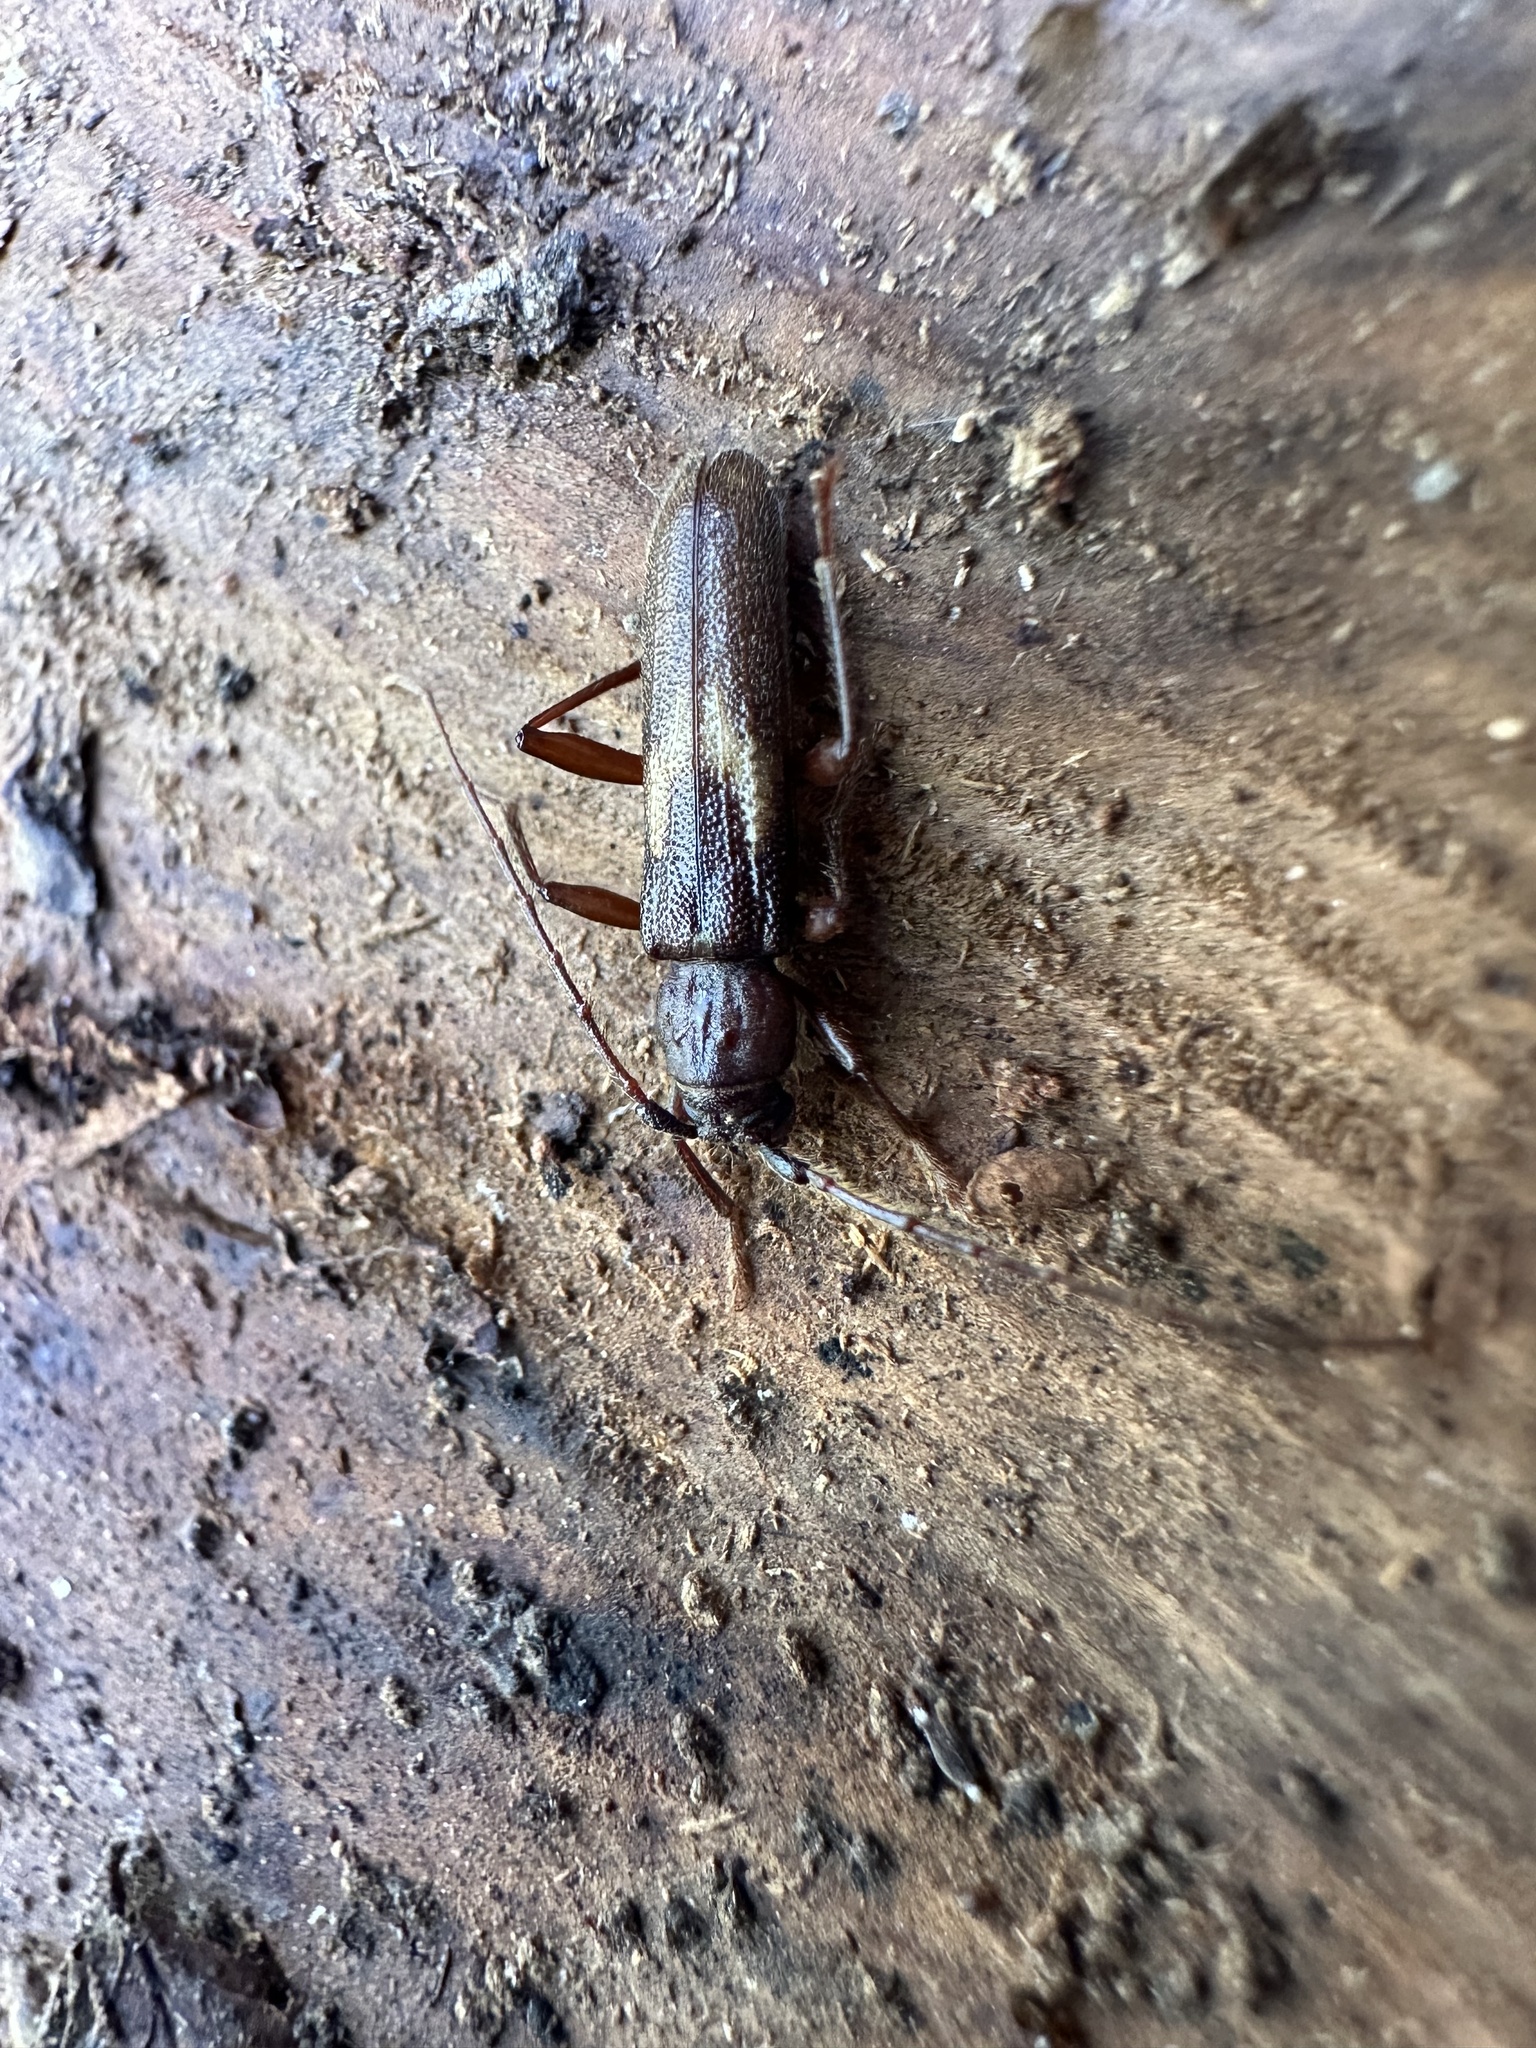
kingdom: Animalia
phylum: Arthropoda
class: Insecta
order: Coleoptera
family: Cerambycidae
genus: Grammicosum
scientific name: Grammicosum flavofasciatum
